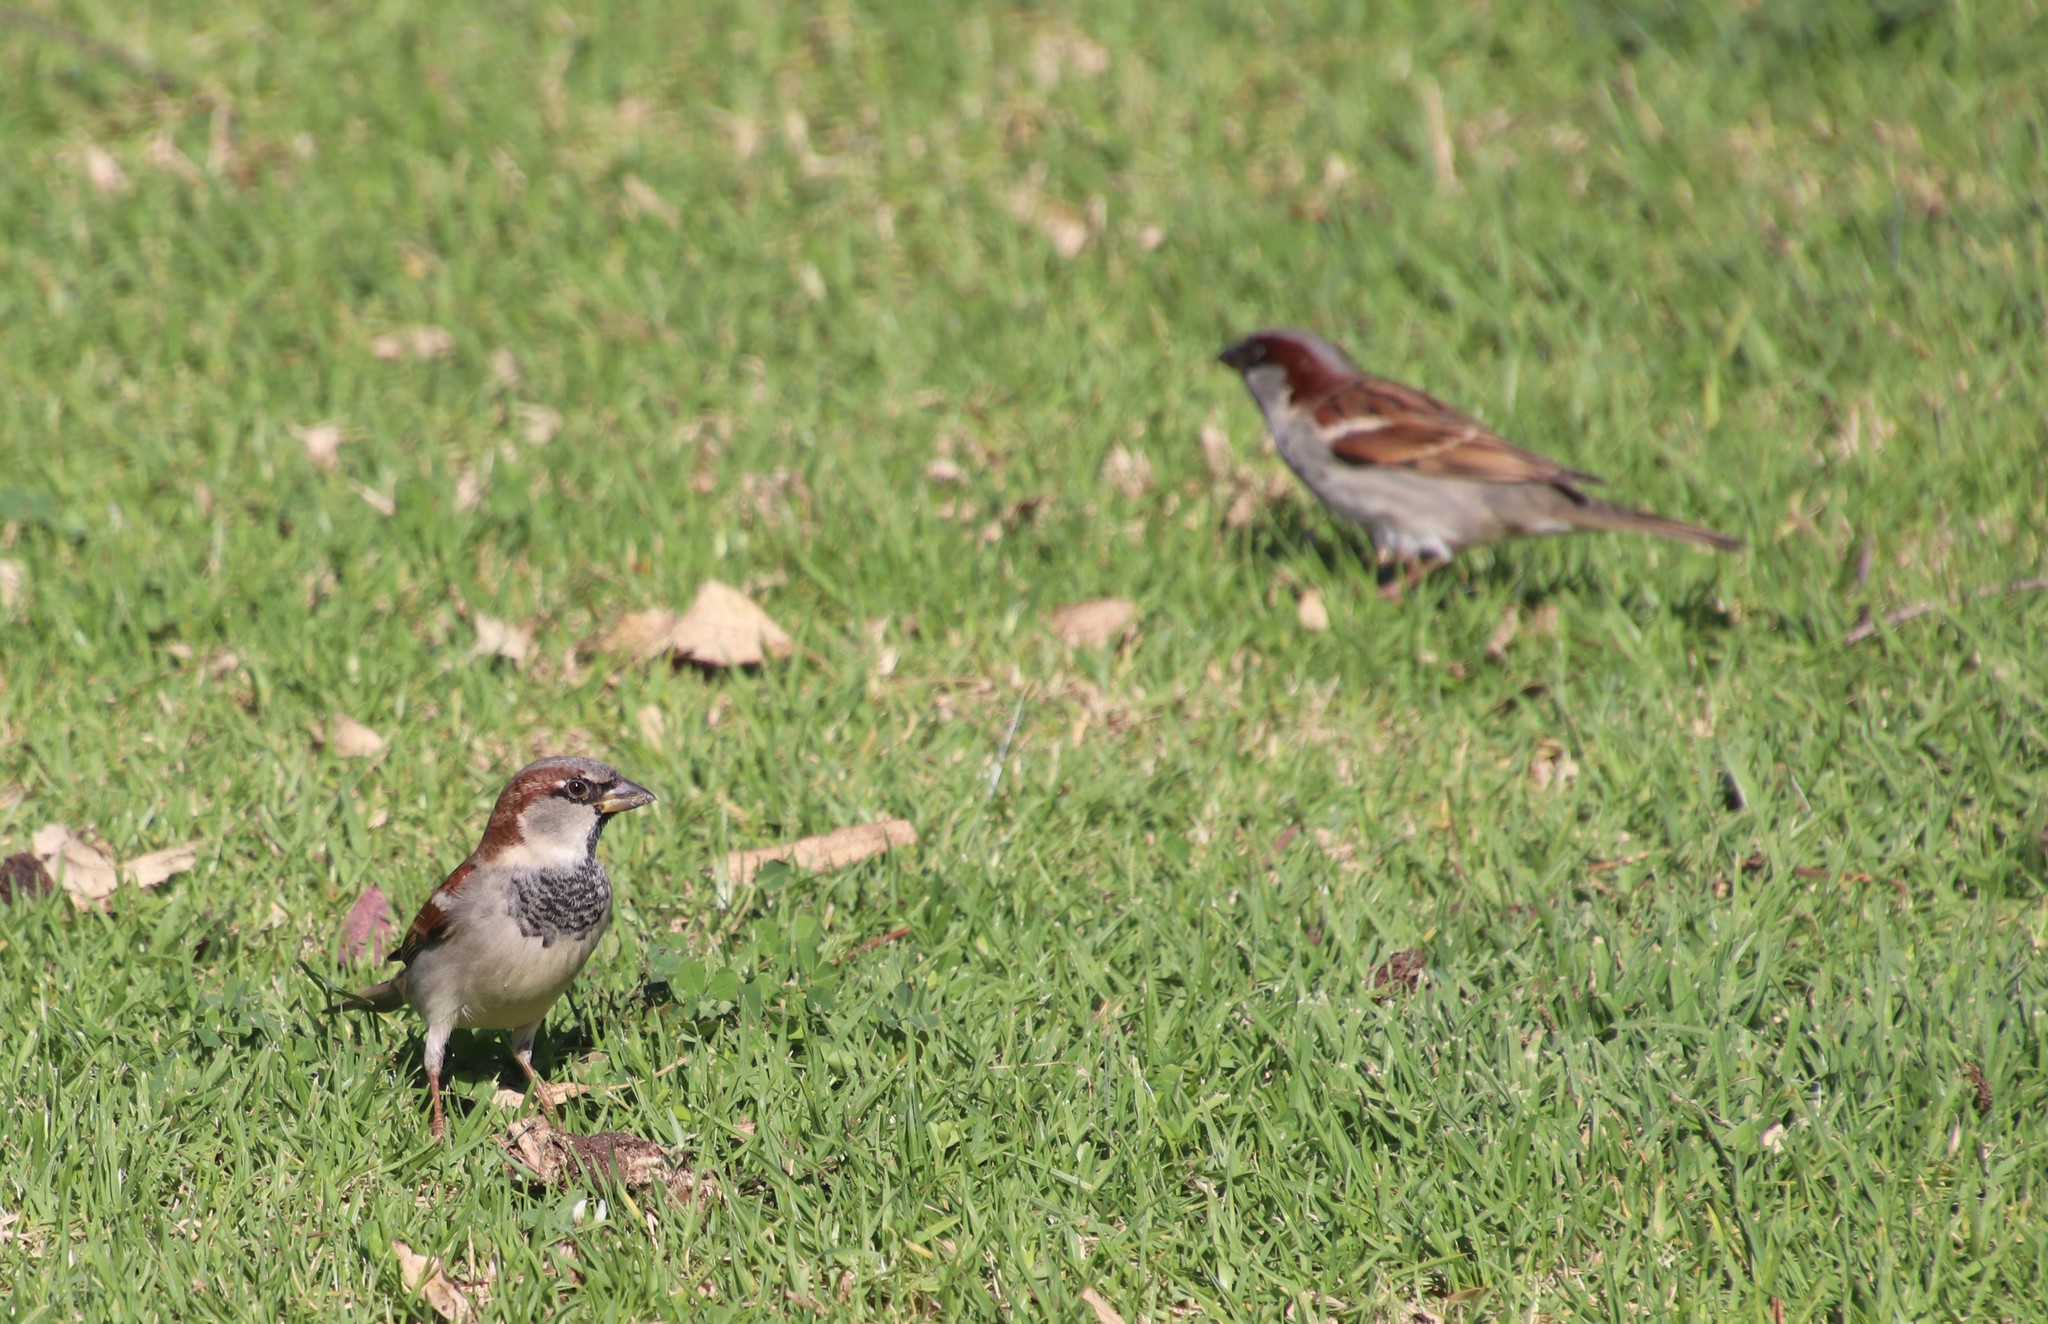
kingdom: Animalia
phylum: Chordata
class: Aves
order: Passeriformes
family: Passeridae
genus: Passer
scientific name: Passer domesticus
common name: House sparrow
